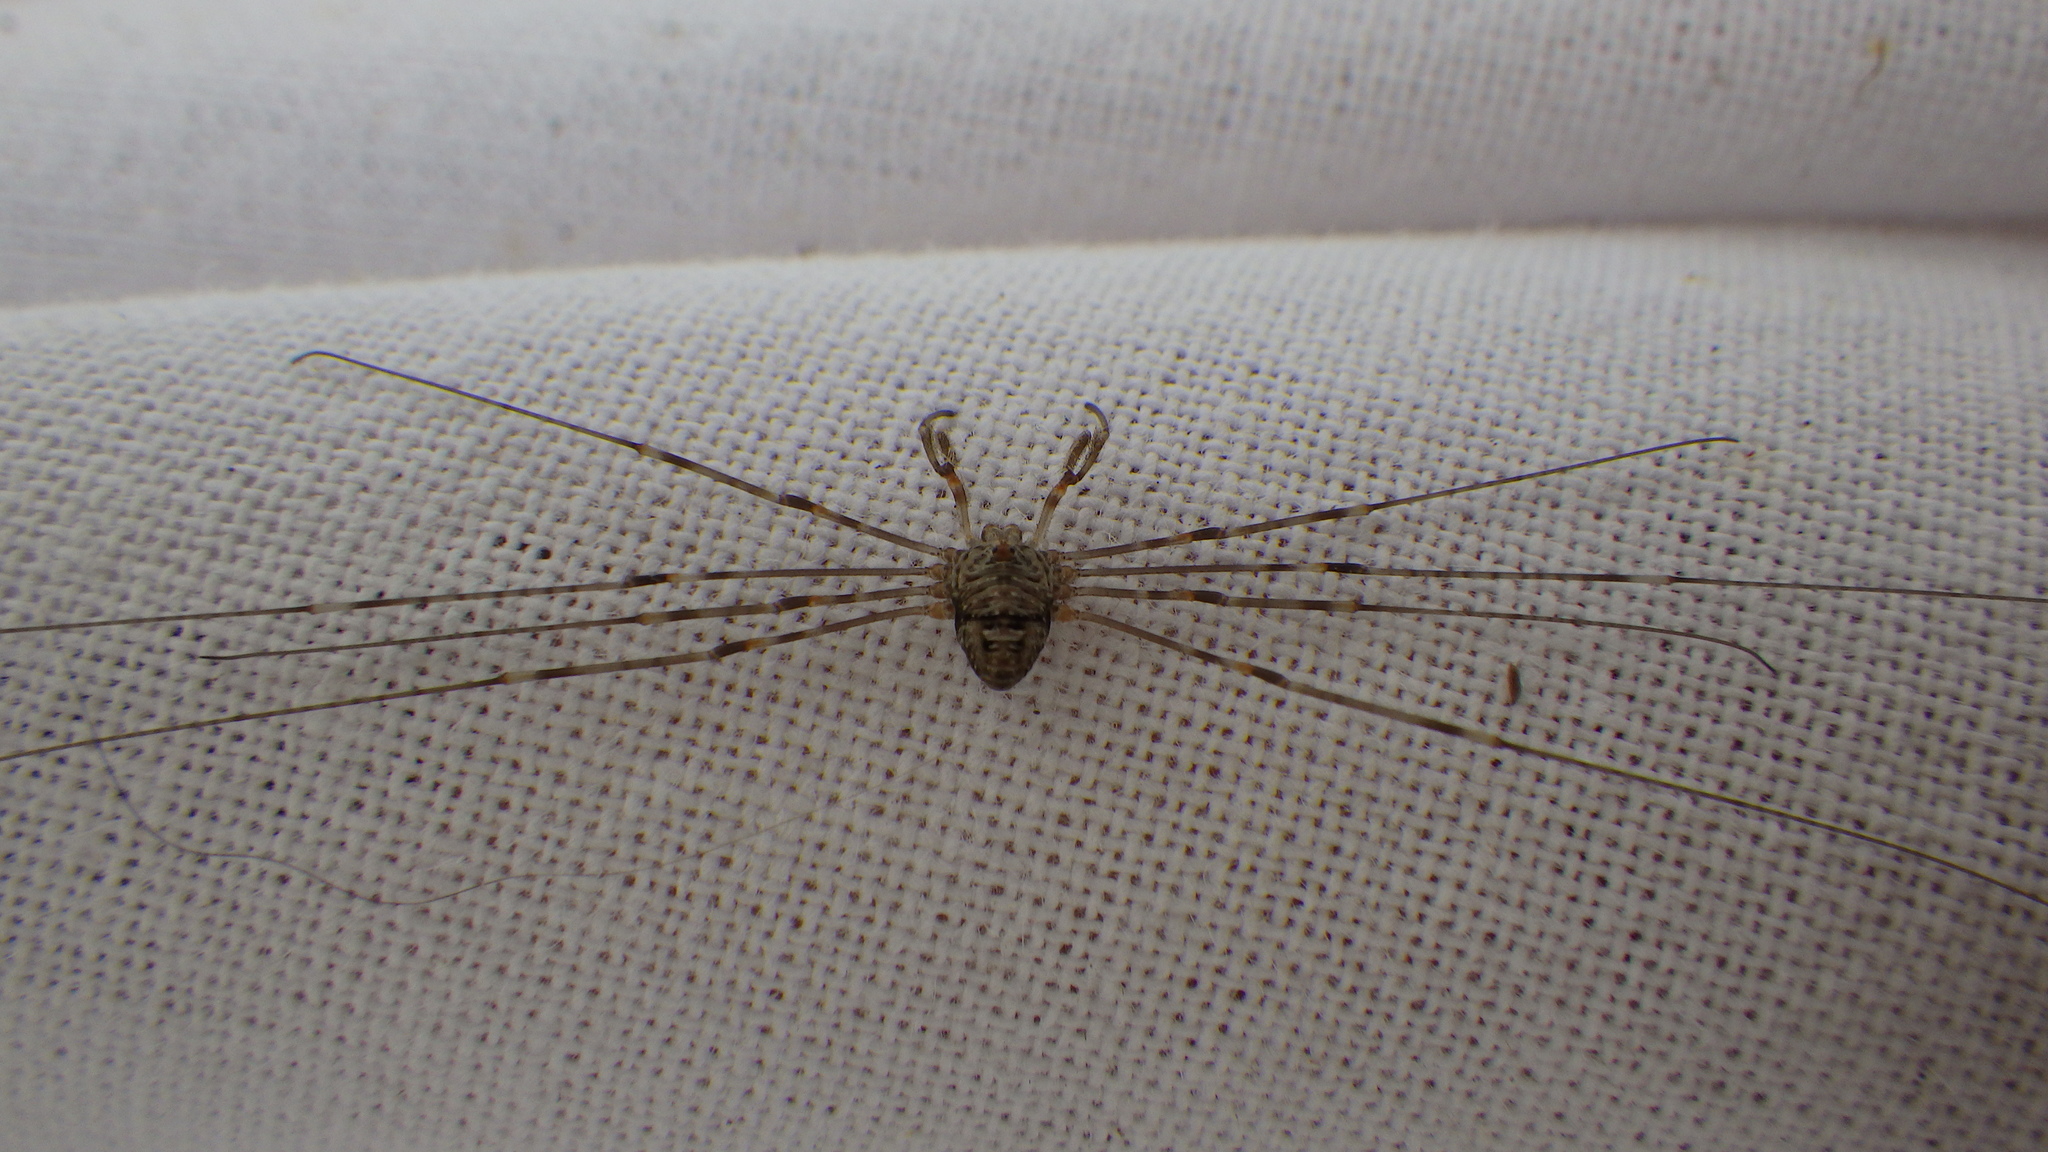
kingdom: Animalia
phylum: Arthropoda
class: Arachnida
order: Opiliones
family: Phalangiidae
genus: Dicranopalpus
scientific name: Dicranopalpus ramosus
